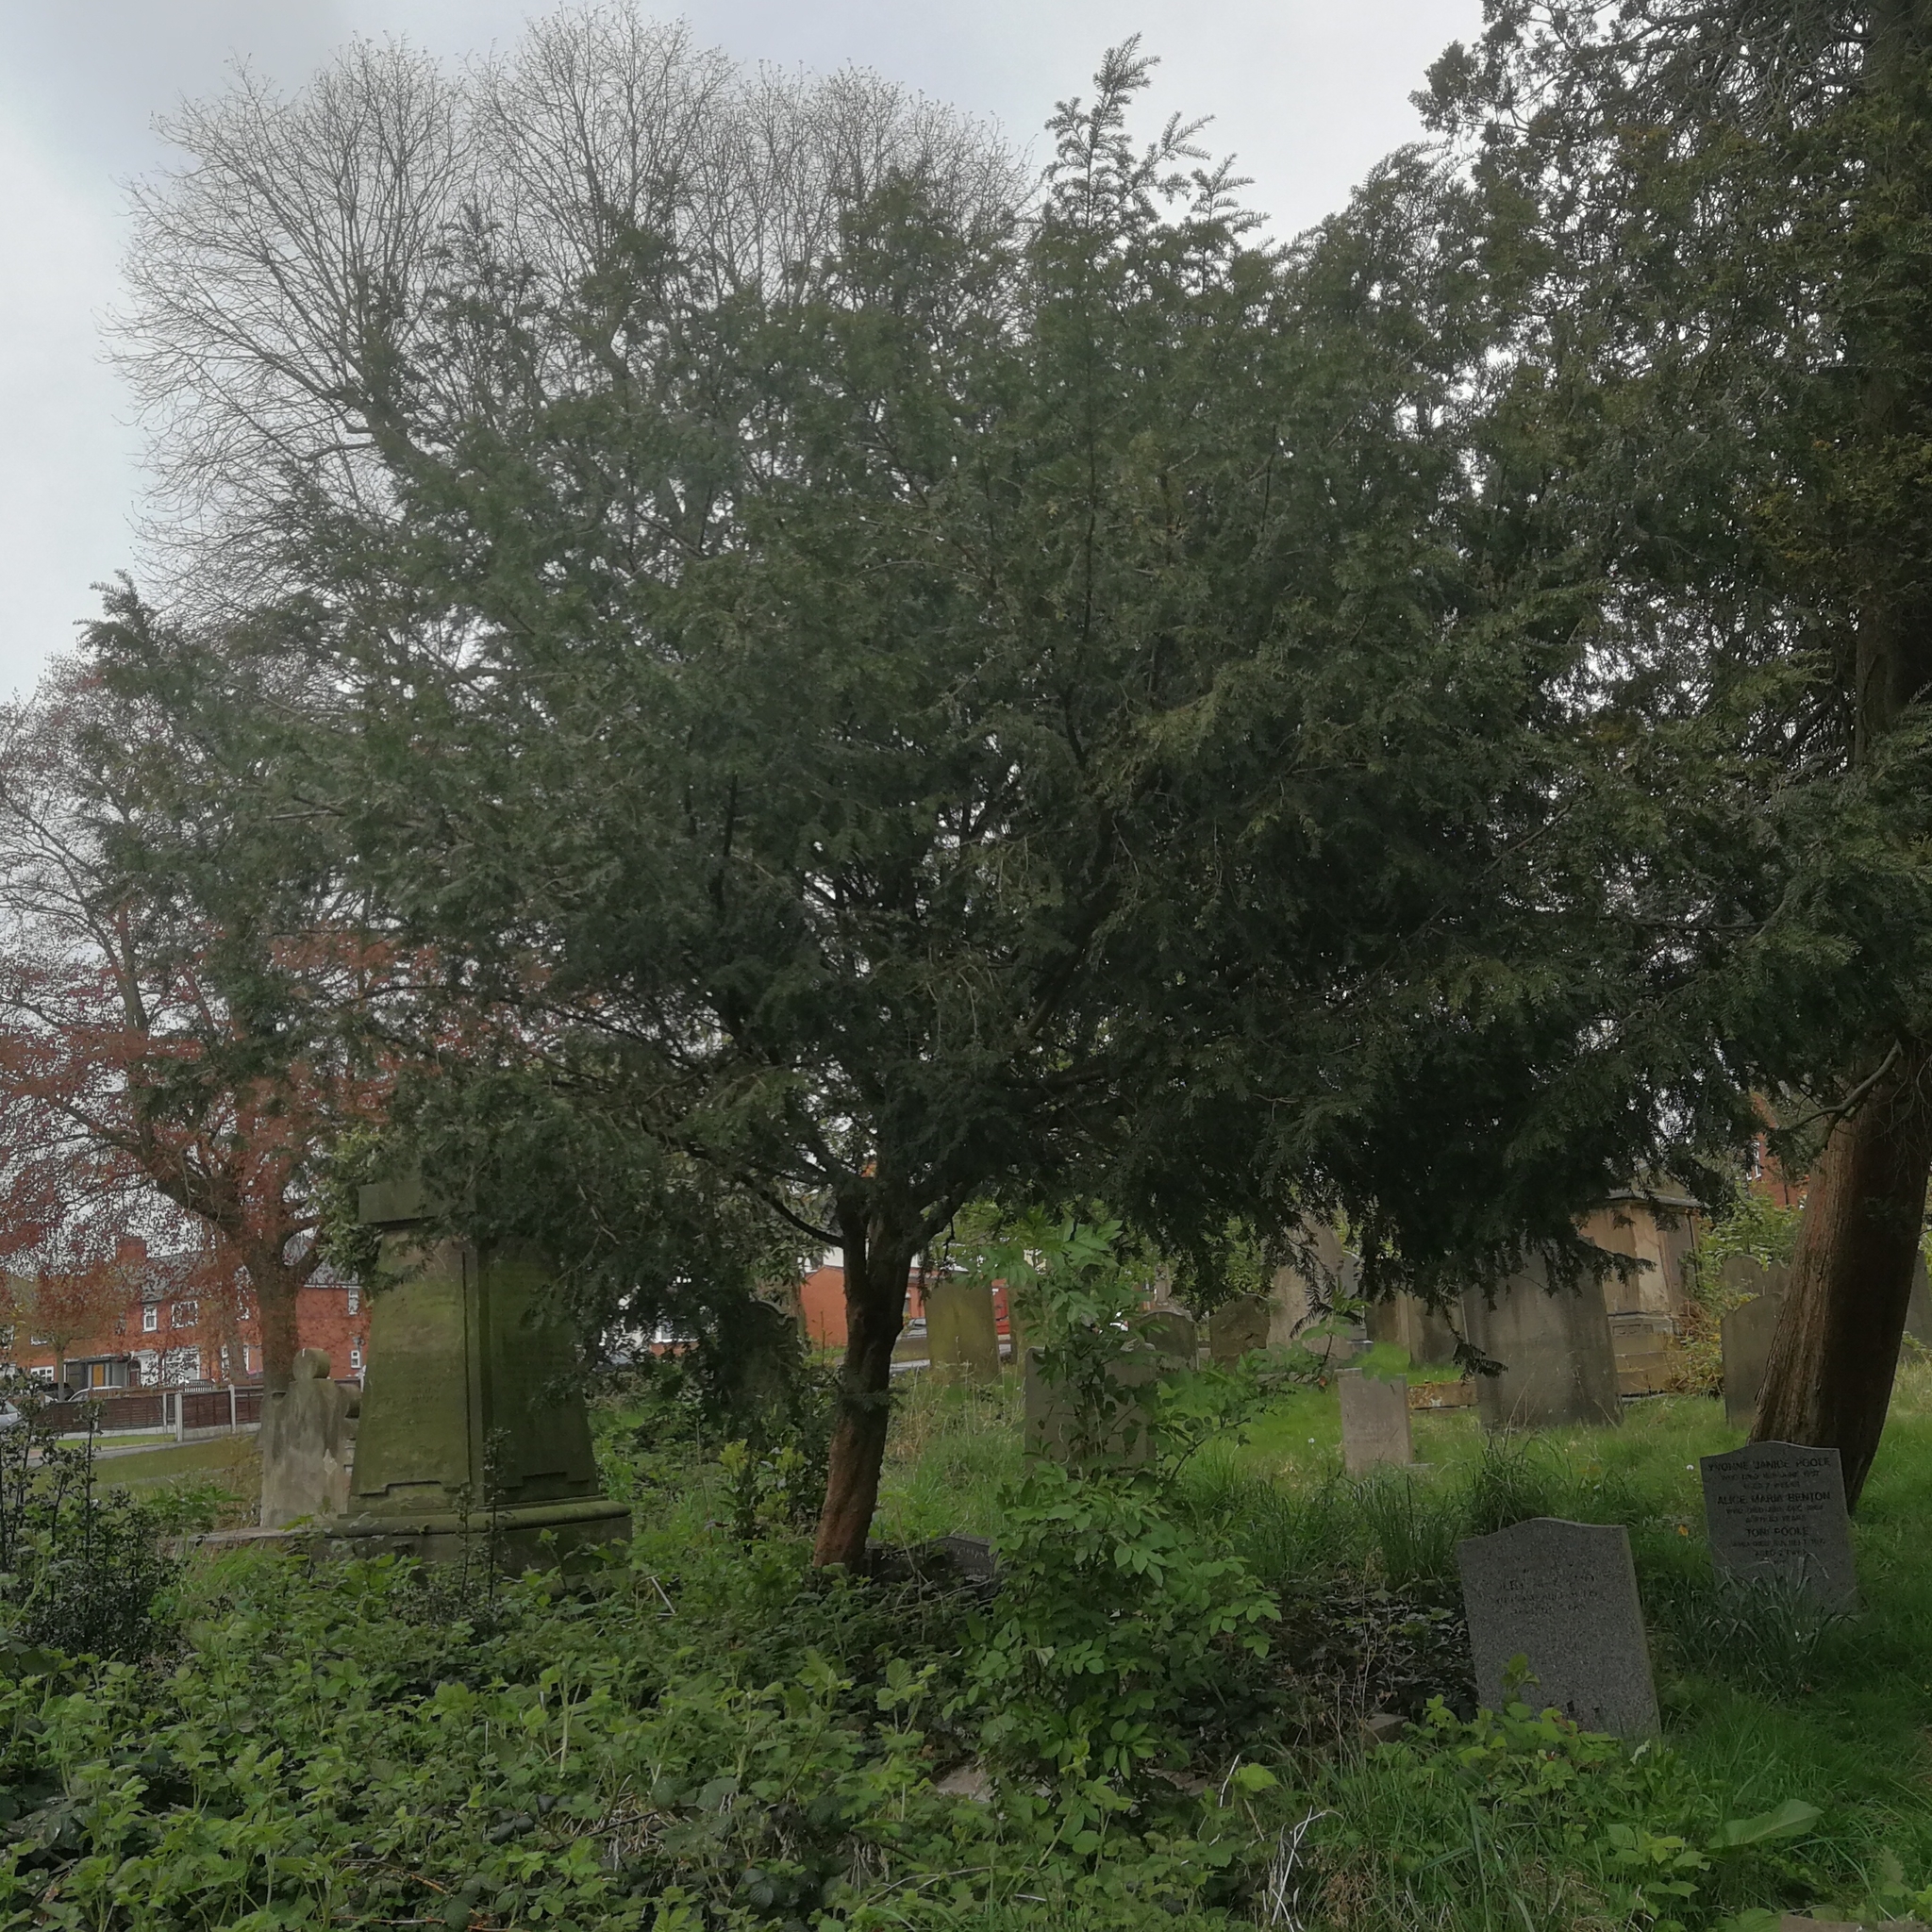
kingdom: Plantae
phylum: Tracheophyta
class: Pinopsida
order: Pinales
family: Taxaceae
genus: Taxus
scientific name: Taxus baccata
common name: Yew
